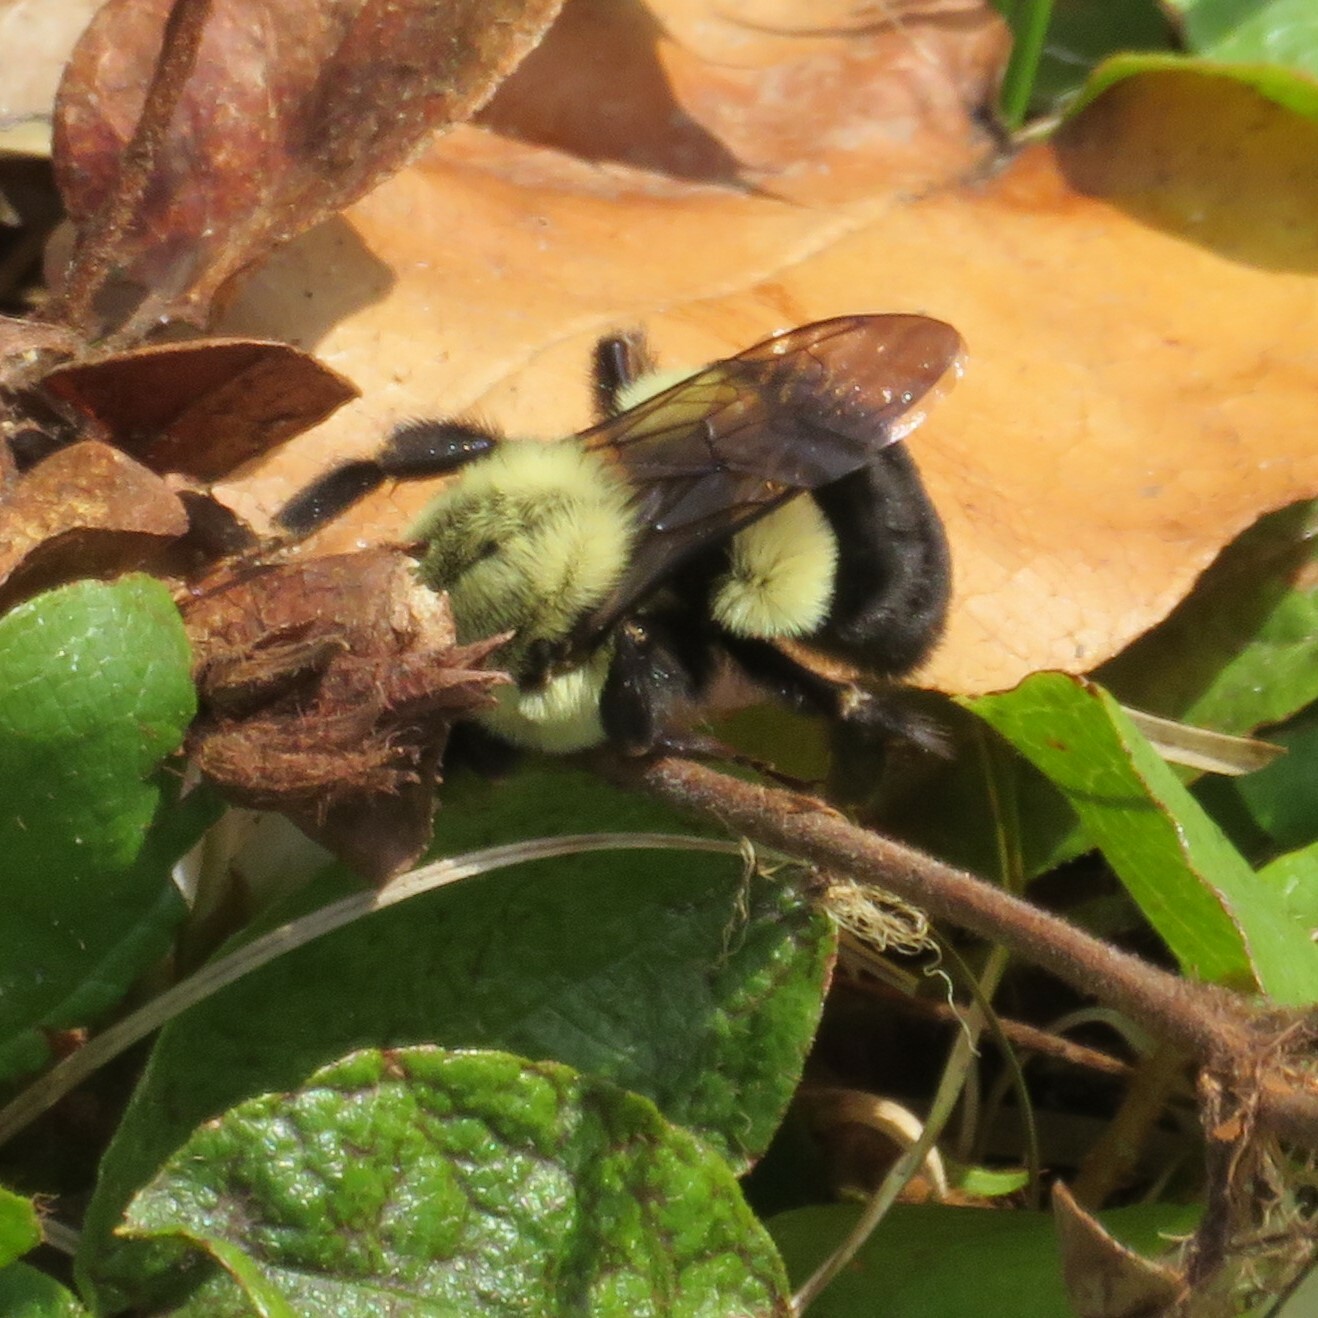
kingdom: Animalia
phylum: Arthropoda
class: Insecta
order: Hymenoptera
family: Apidae
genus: Bombus
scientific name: Bombus impatiens
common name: Common eastern bumble bee
